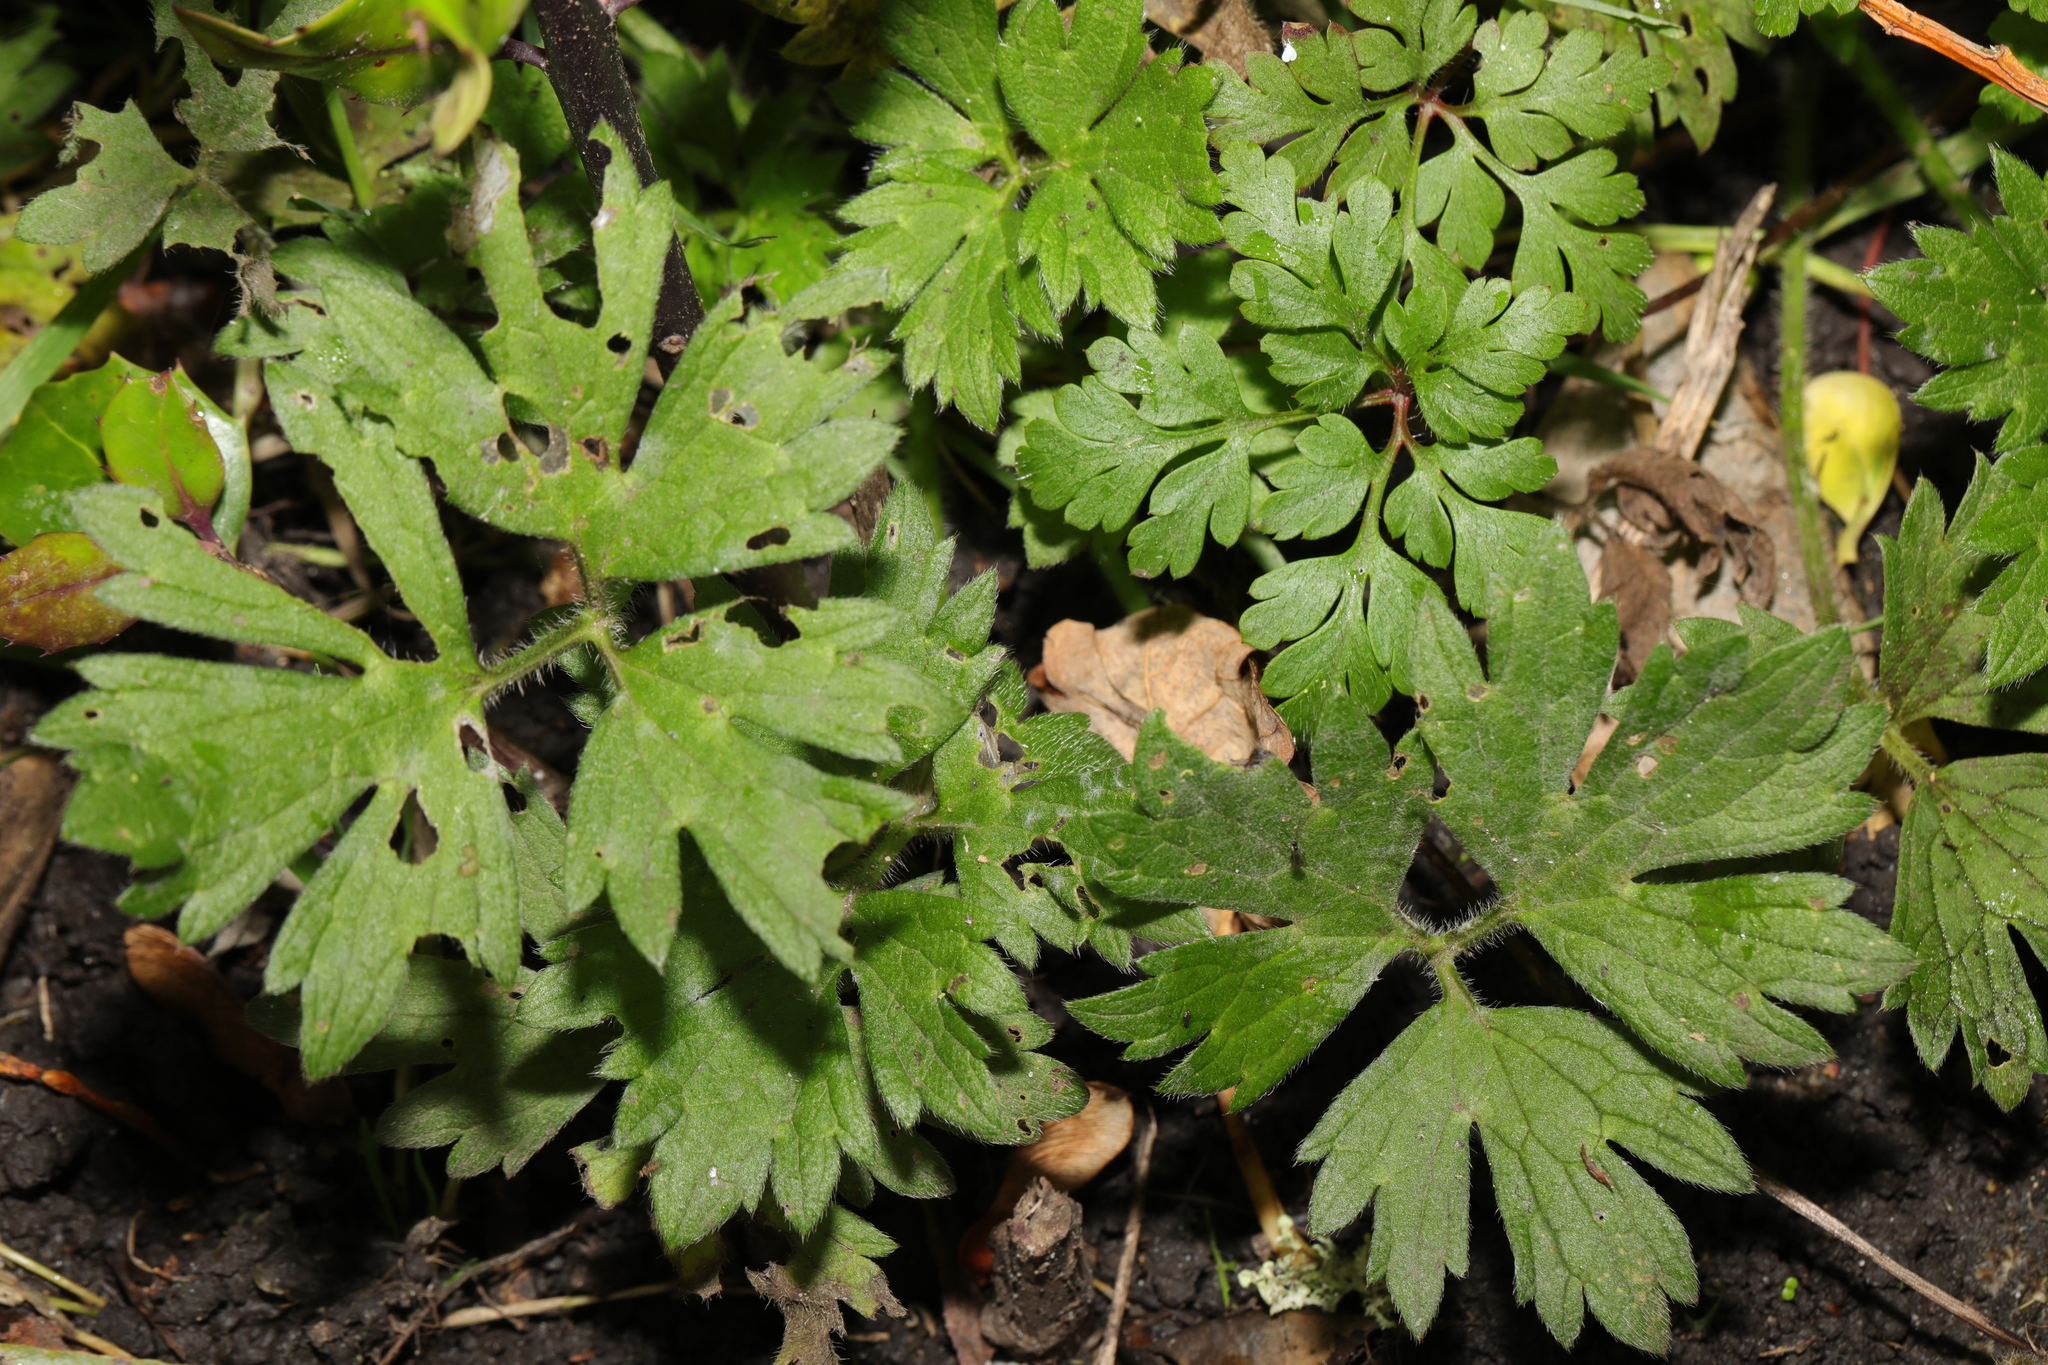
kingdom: Plantae
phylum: Tracheophyta
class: Magnoliopsida
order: Ranunculales
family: Ranunculaceae
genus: Ranunculus
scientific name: Ranunculus repens
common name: Creeping buttercup
